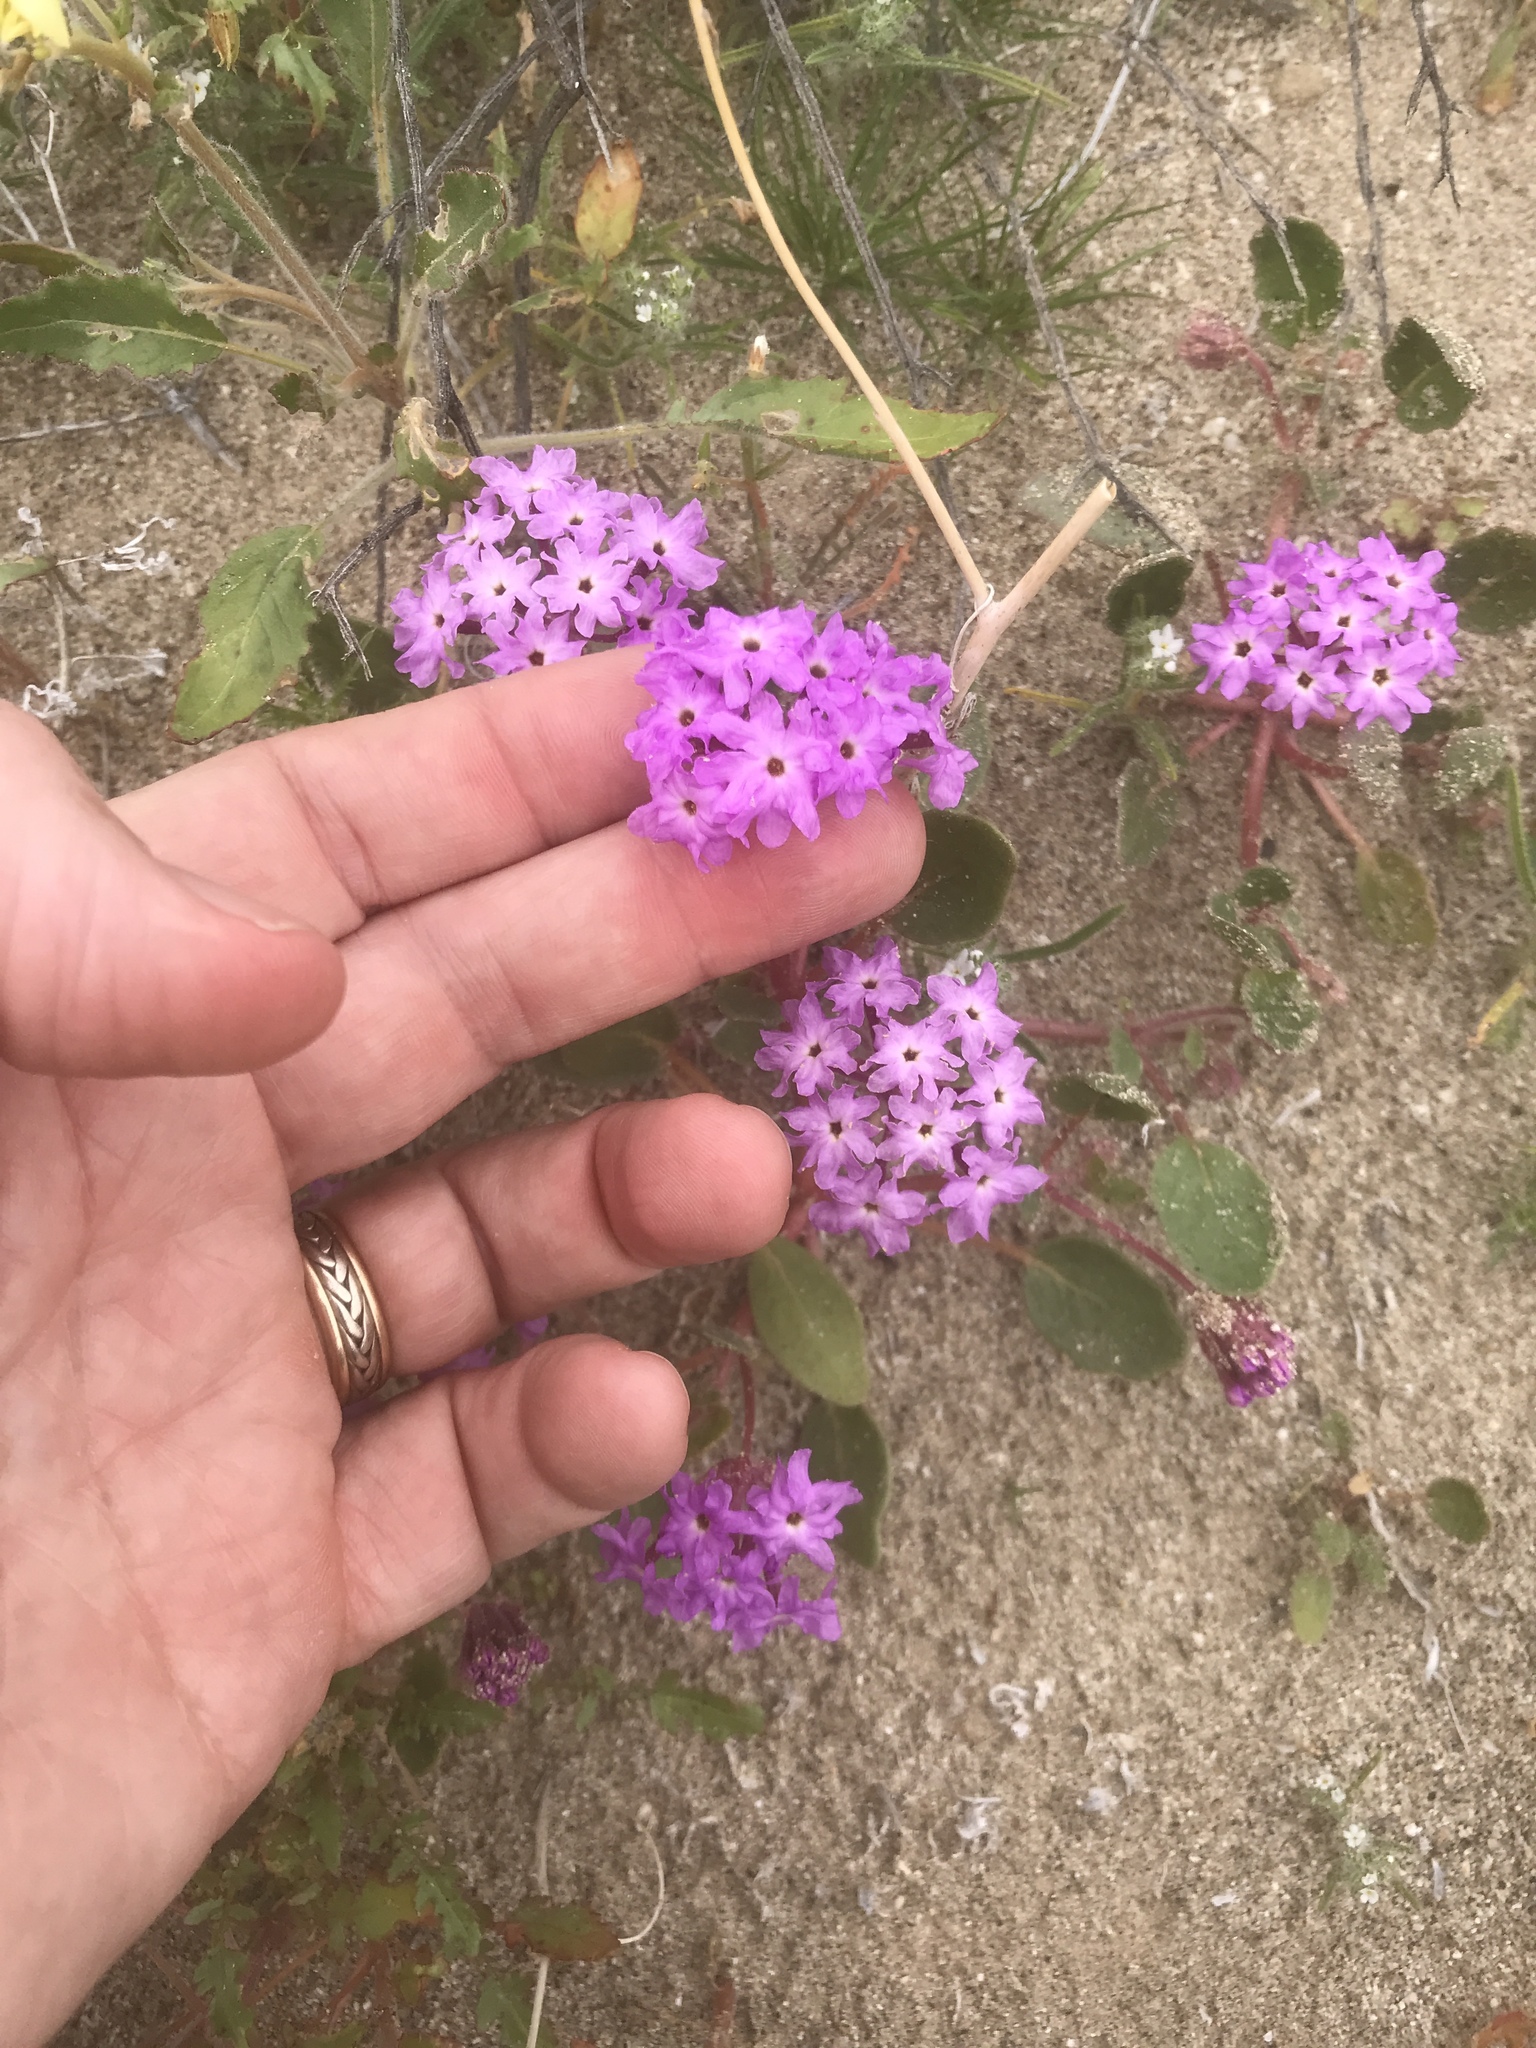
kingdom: Plantae
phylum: Tracheophyta
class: Magnoliopsida
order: Caryophyllales
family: Nyctaginaceae
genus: Abronia
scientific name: Abronia villosa
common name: Desert sand-verbena
